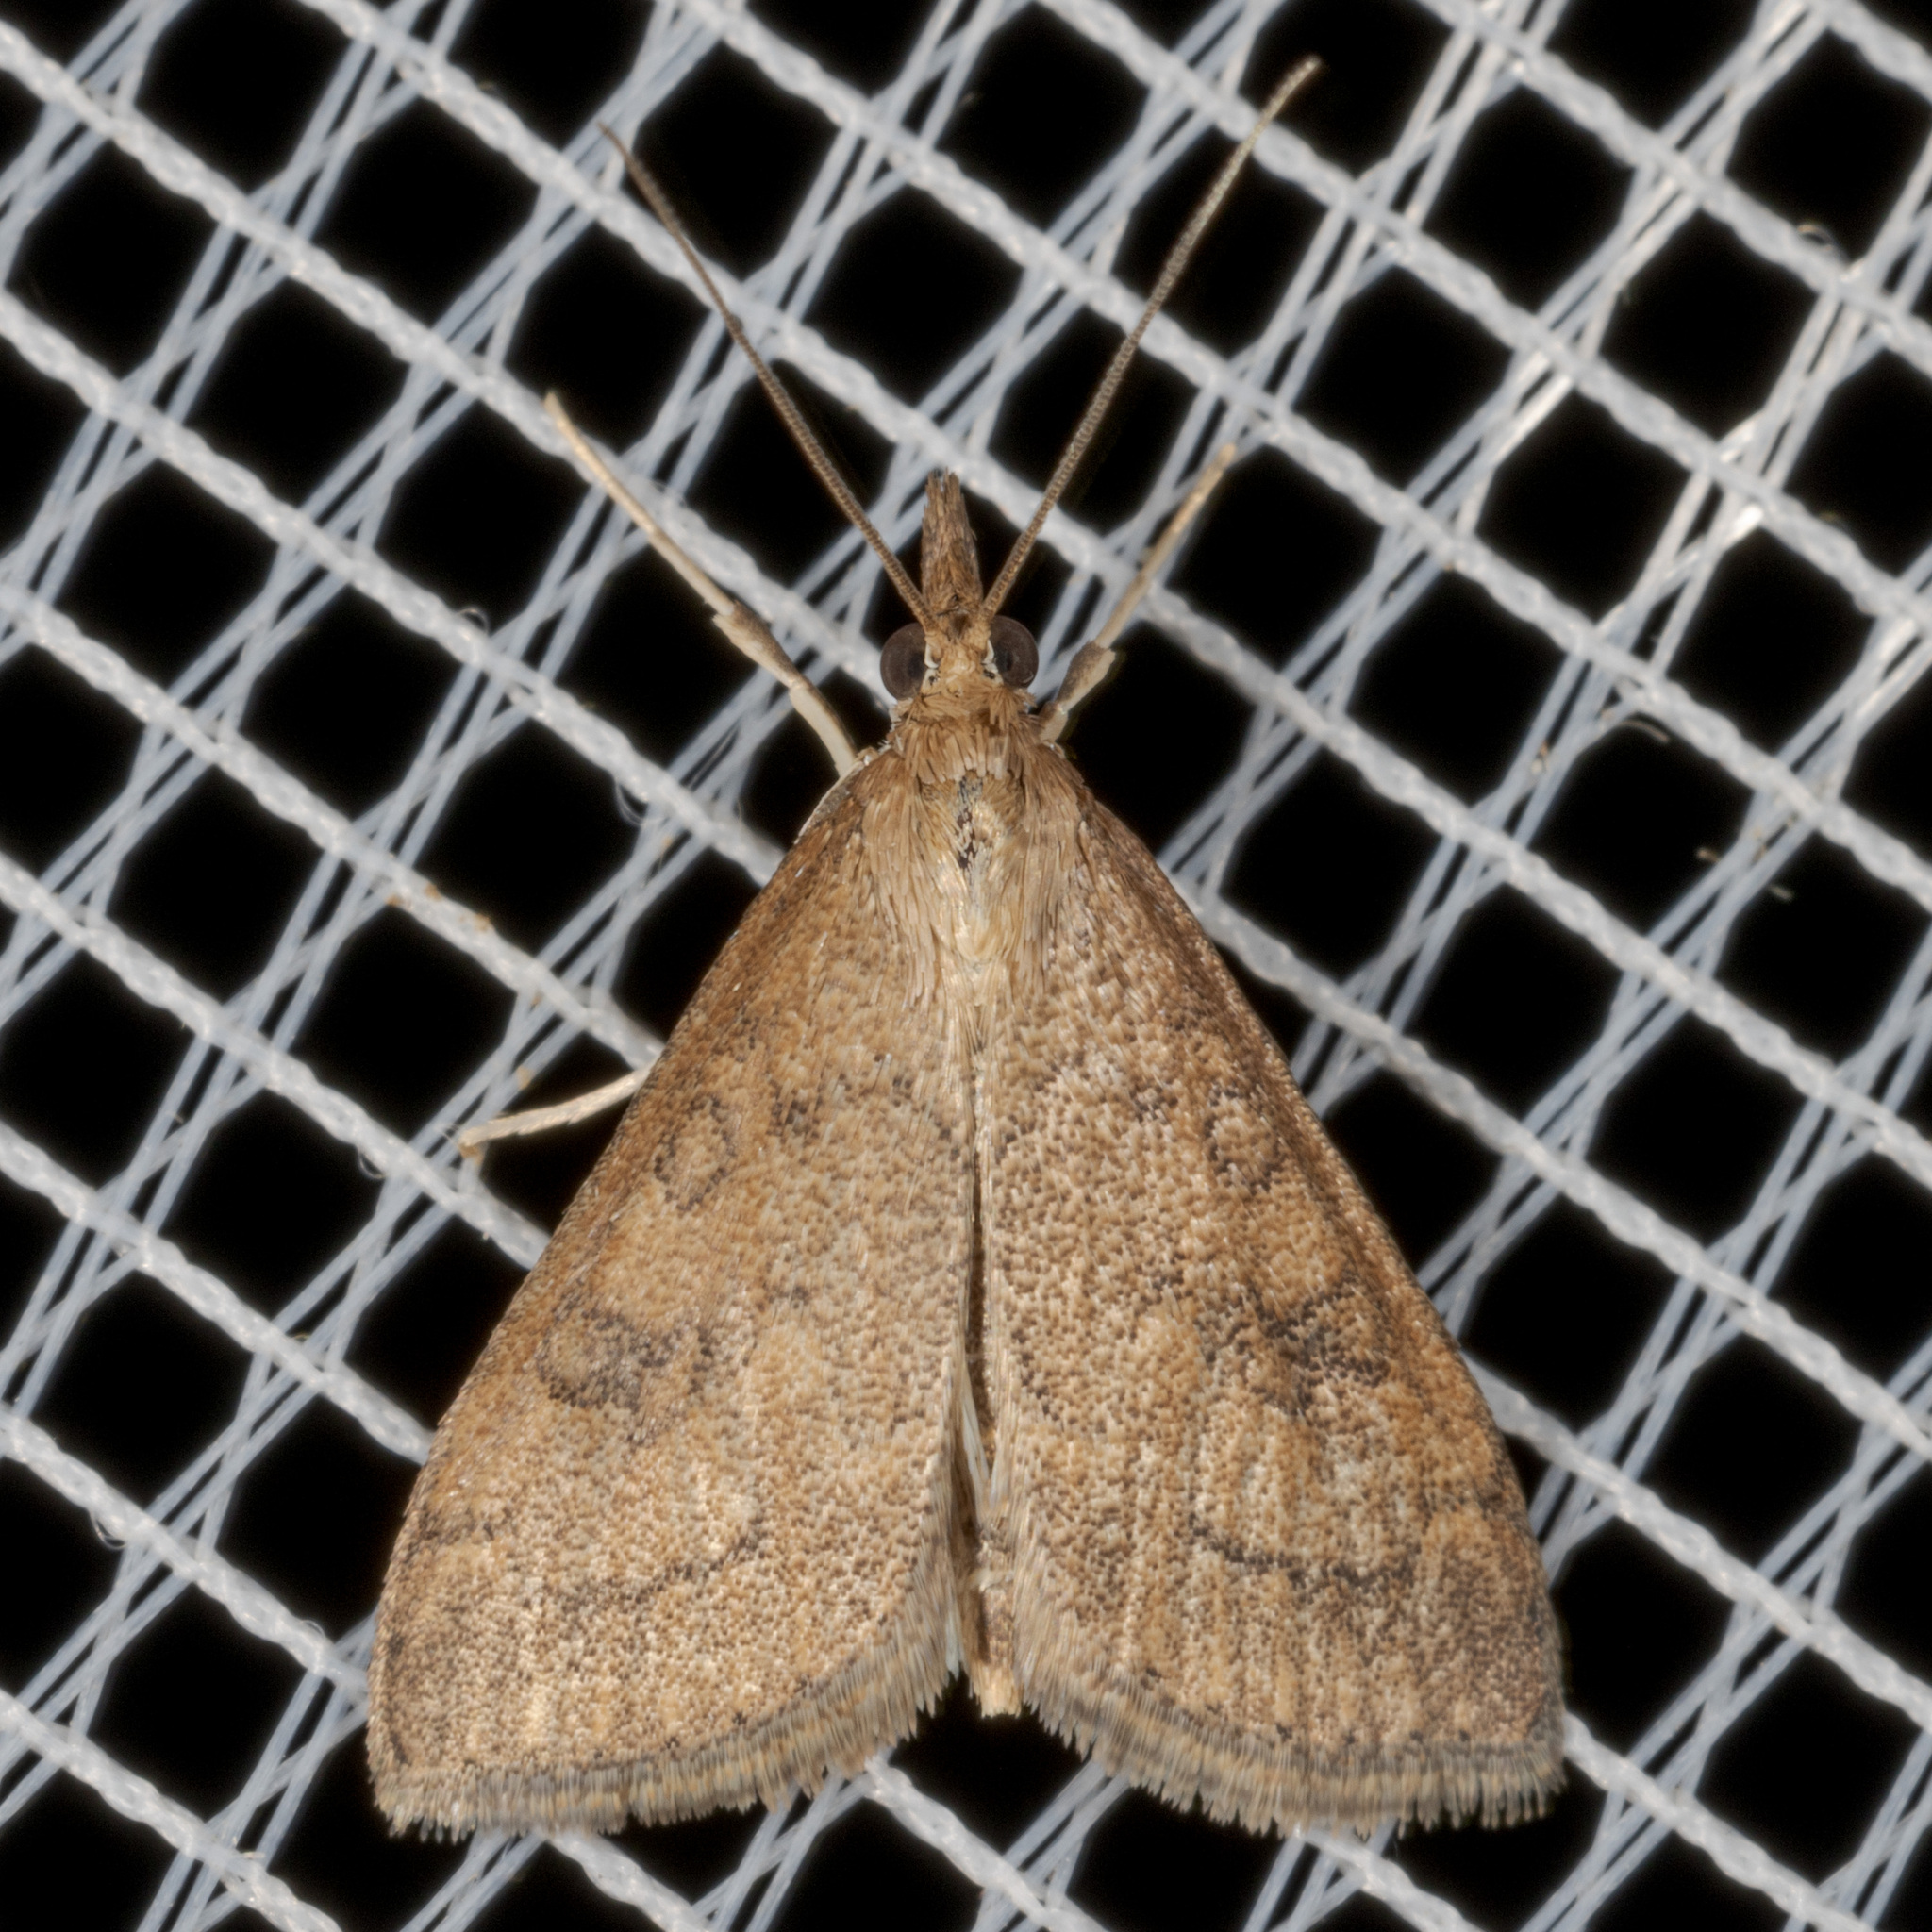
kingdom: Animalia
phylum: Arthropoda
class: Insecta
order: Lepidoptera
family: Crambidae
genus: Udea
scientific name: Udea rubigalis
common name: Celery leaftier moth
